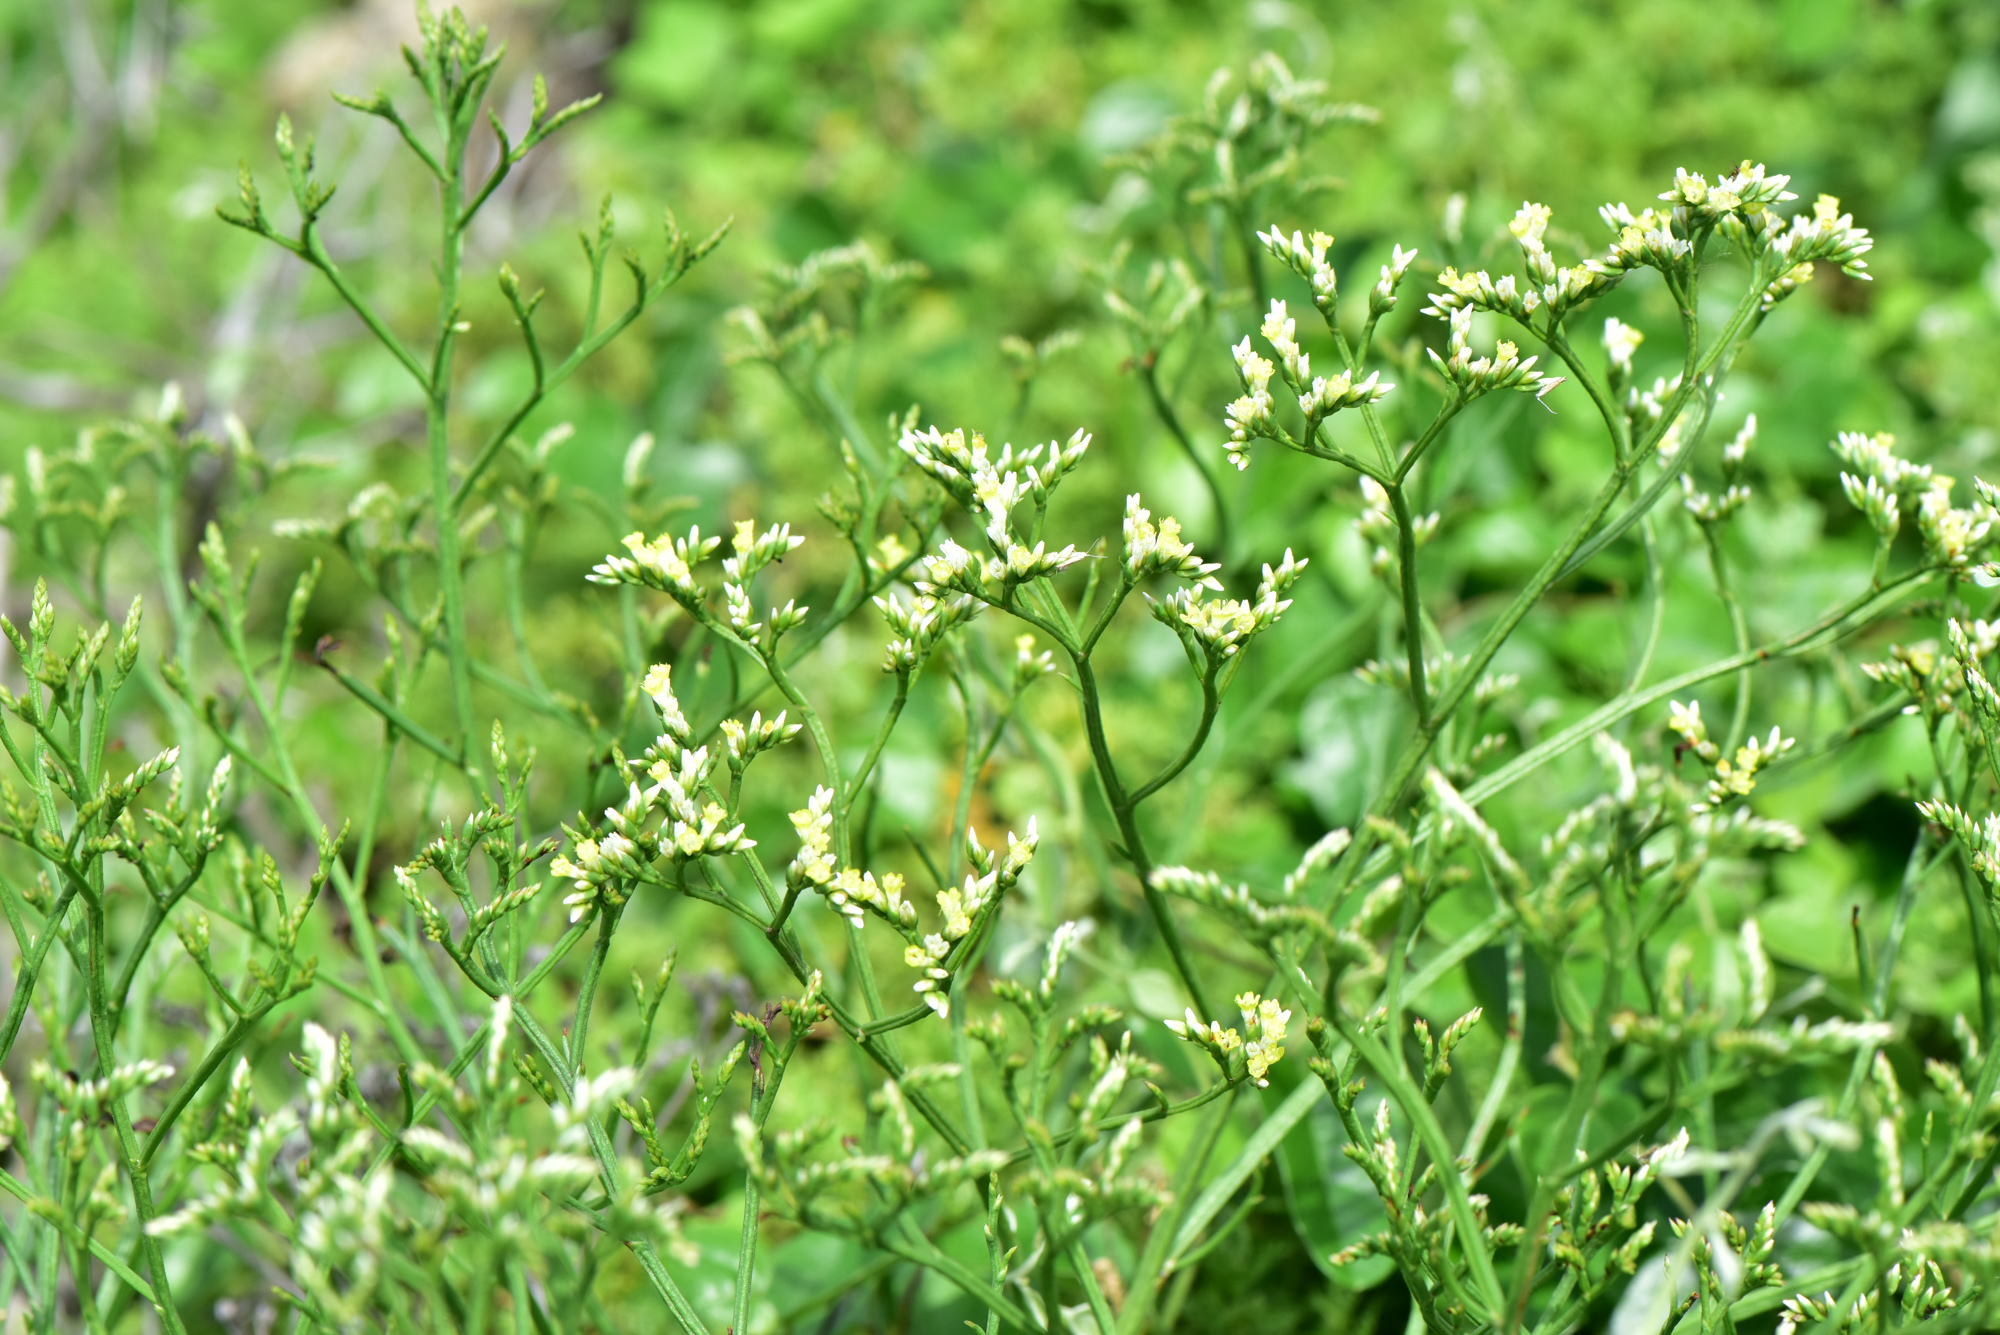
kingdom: Plantae
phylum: Tracheophyta
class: Magnoliopsida
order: Caryophyllales
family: Plumbaginaceae
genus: Limonium
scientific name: Limonium sinense
